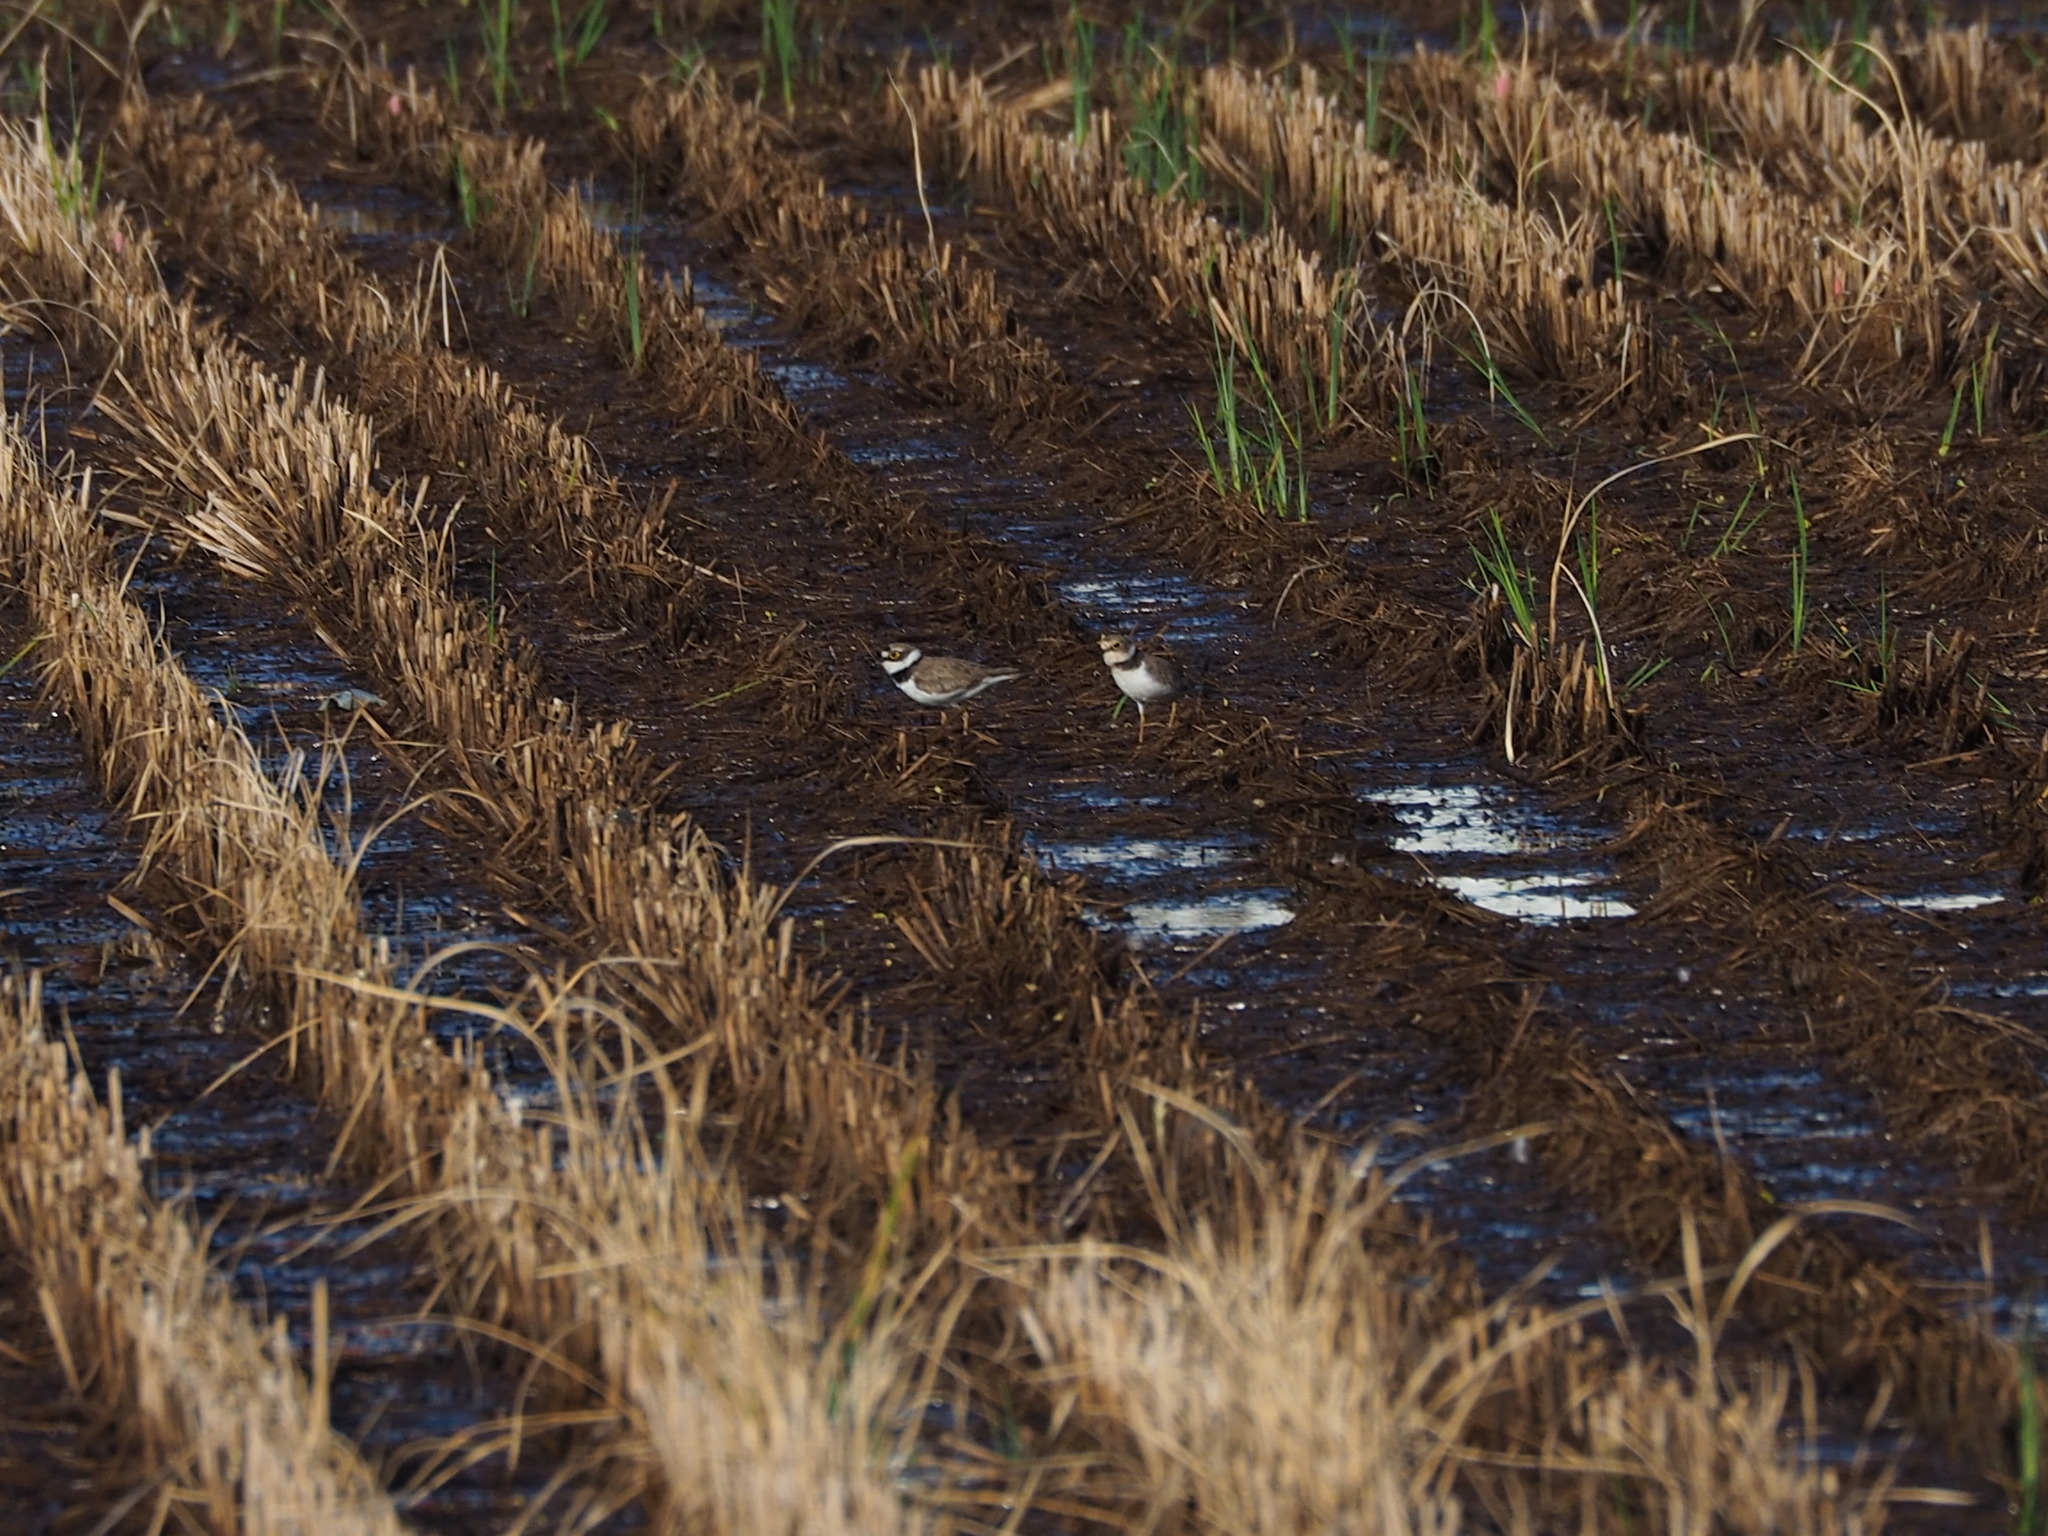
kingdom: Animalia
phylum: Chordata
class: Aves
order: Charadriiformes
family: Charadriidae
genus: Charadrius
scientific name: Charadrius dubius
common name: Little ringed plover
